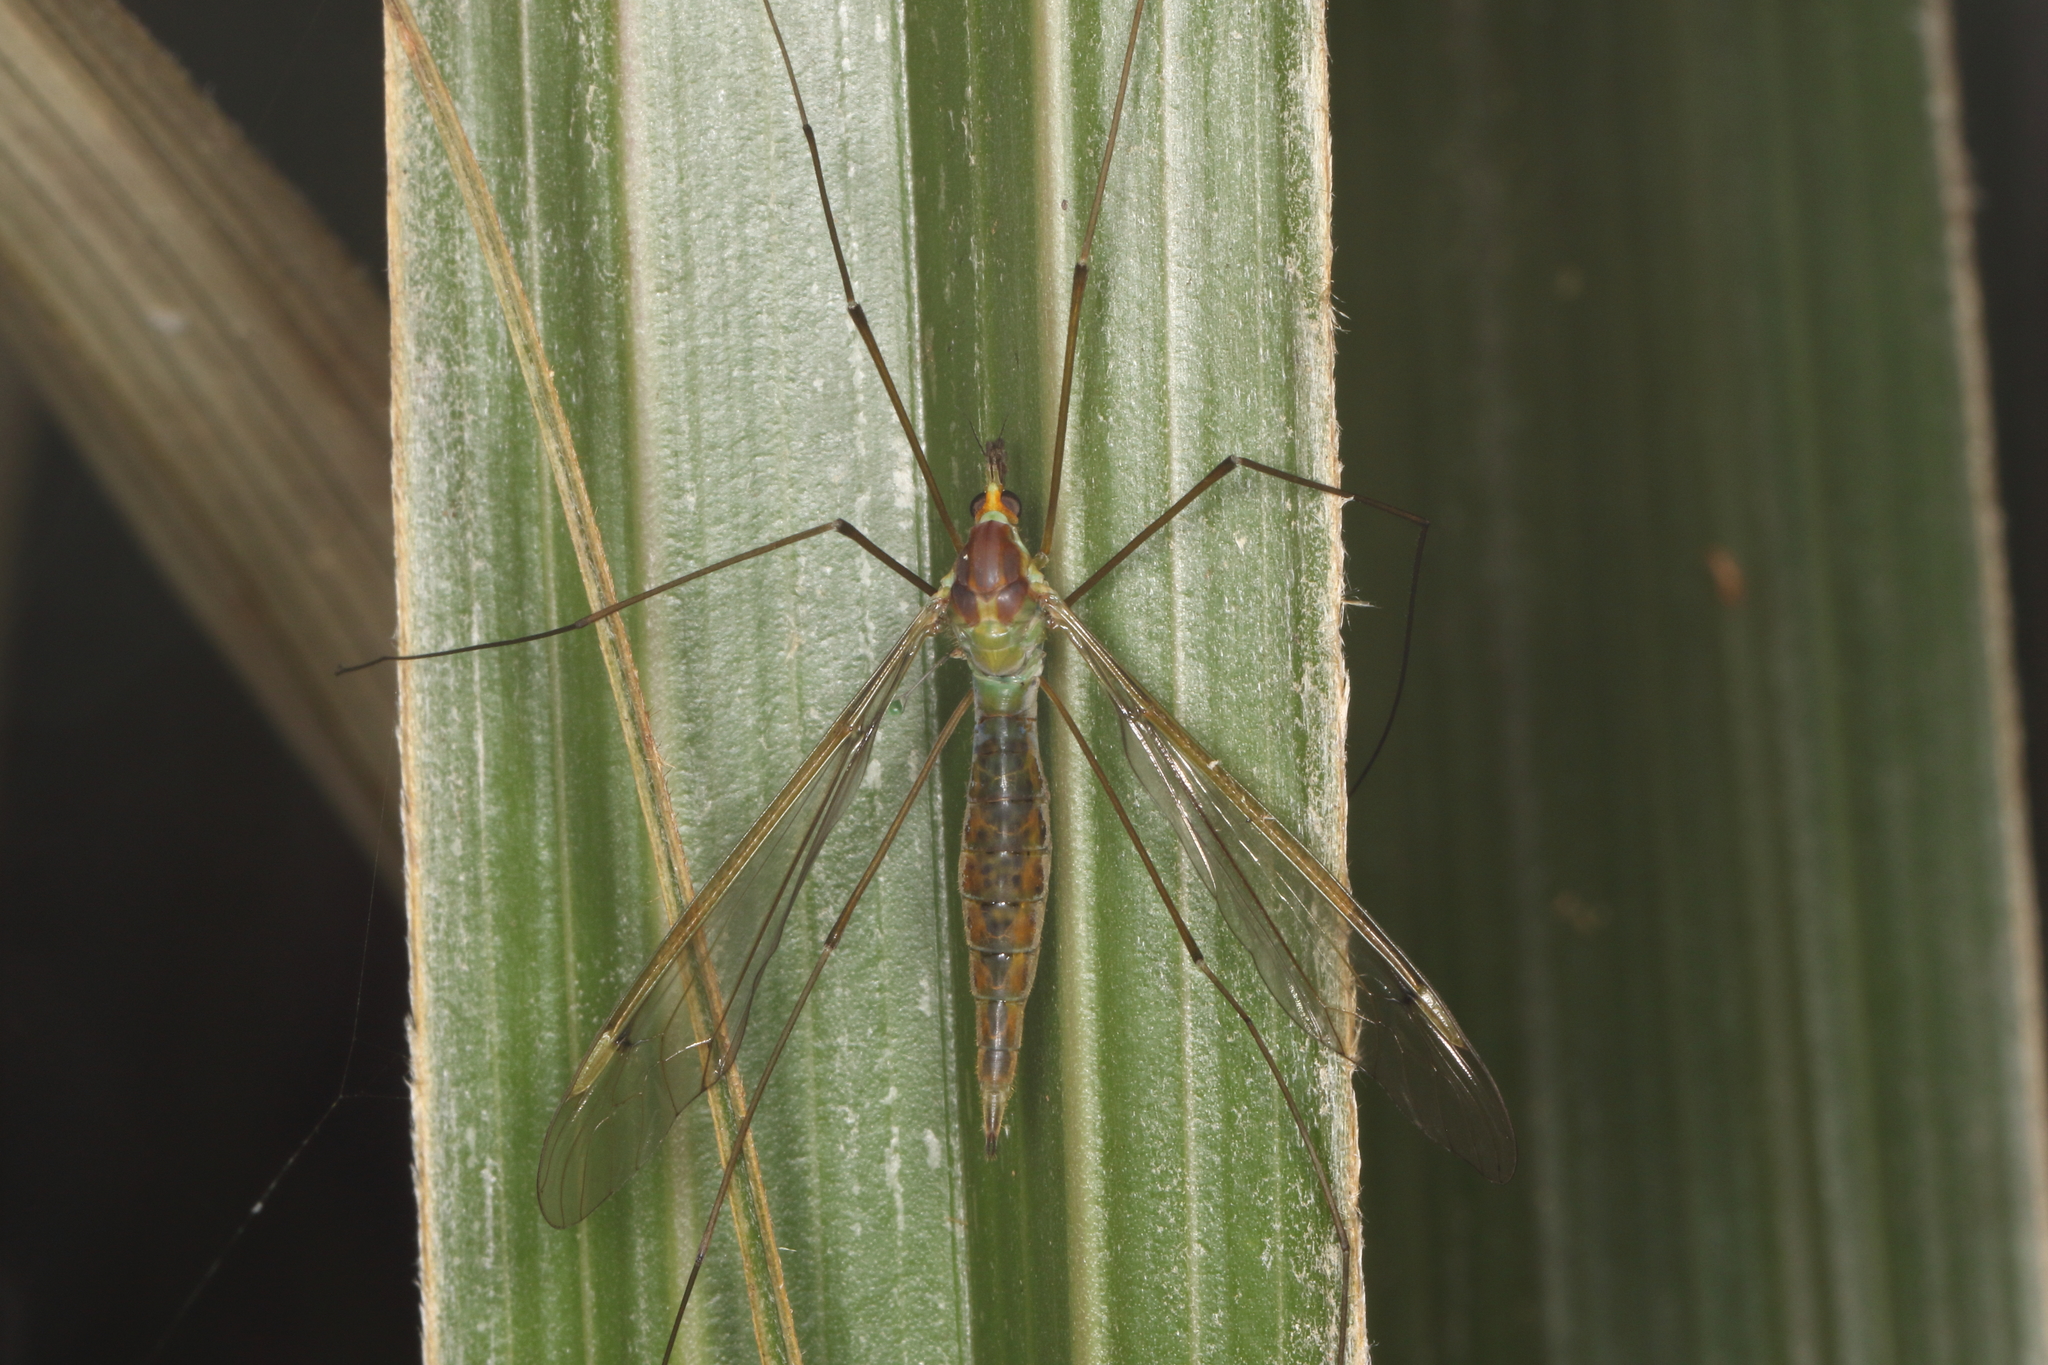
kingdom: Animalia
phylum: Arthropoda
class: Insecta
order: Diptera
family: Tipulidae
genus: Leptotarsus
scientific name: Leptotarsus albistigma
